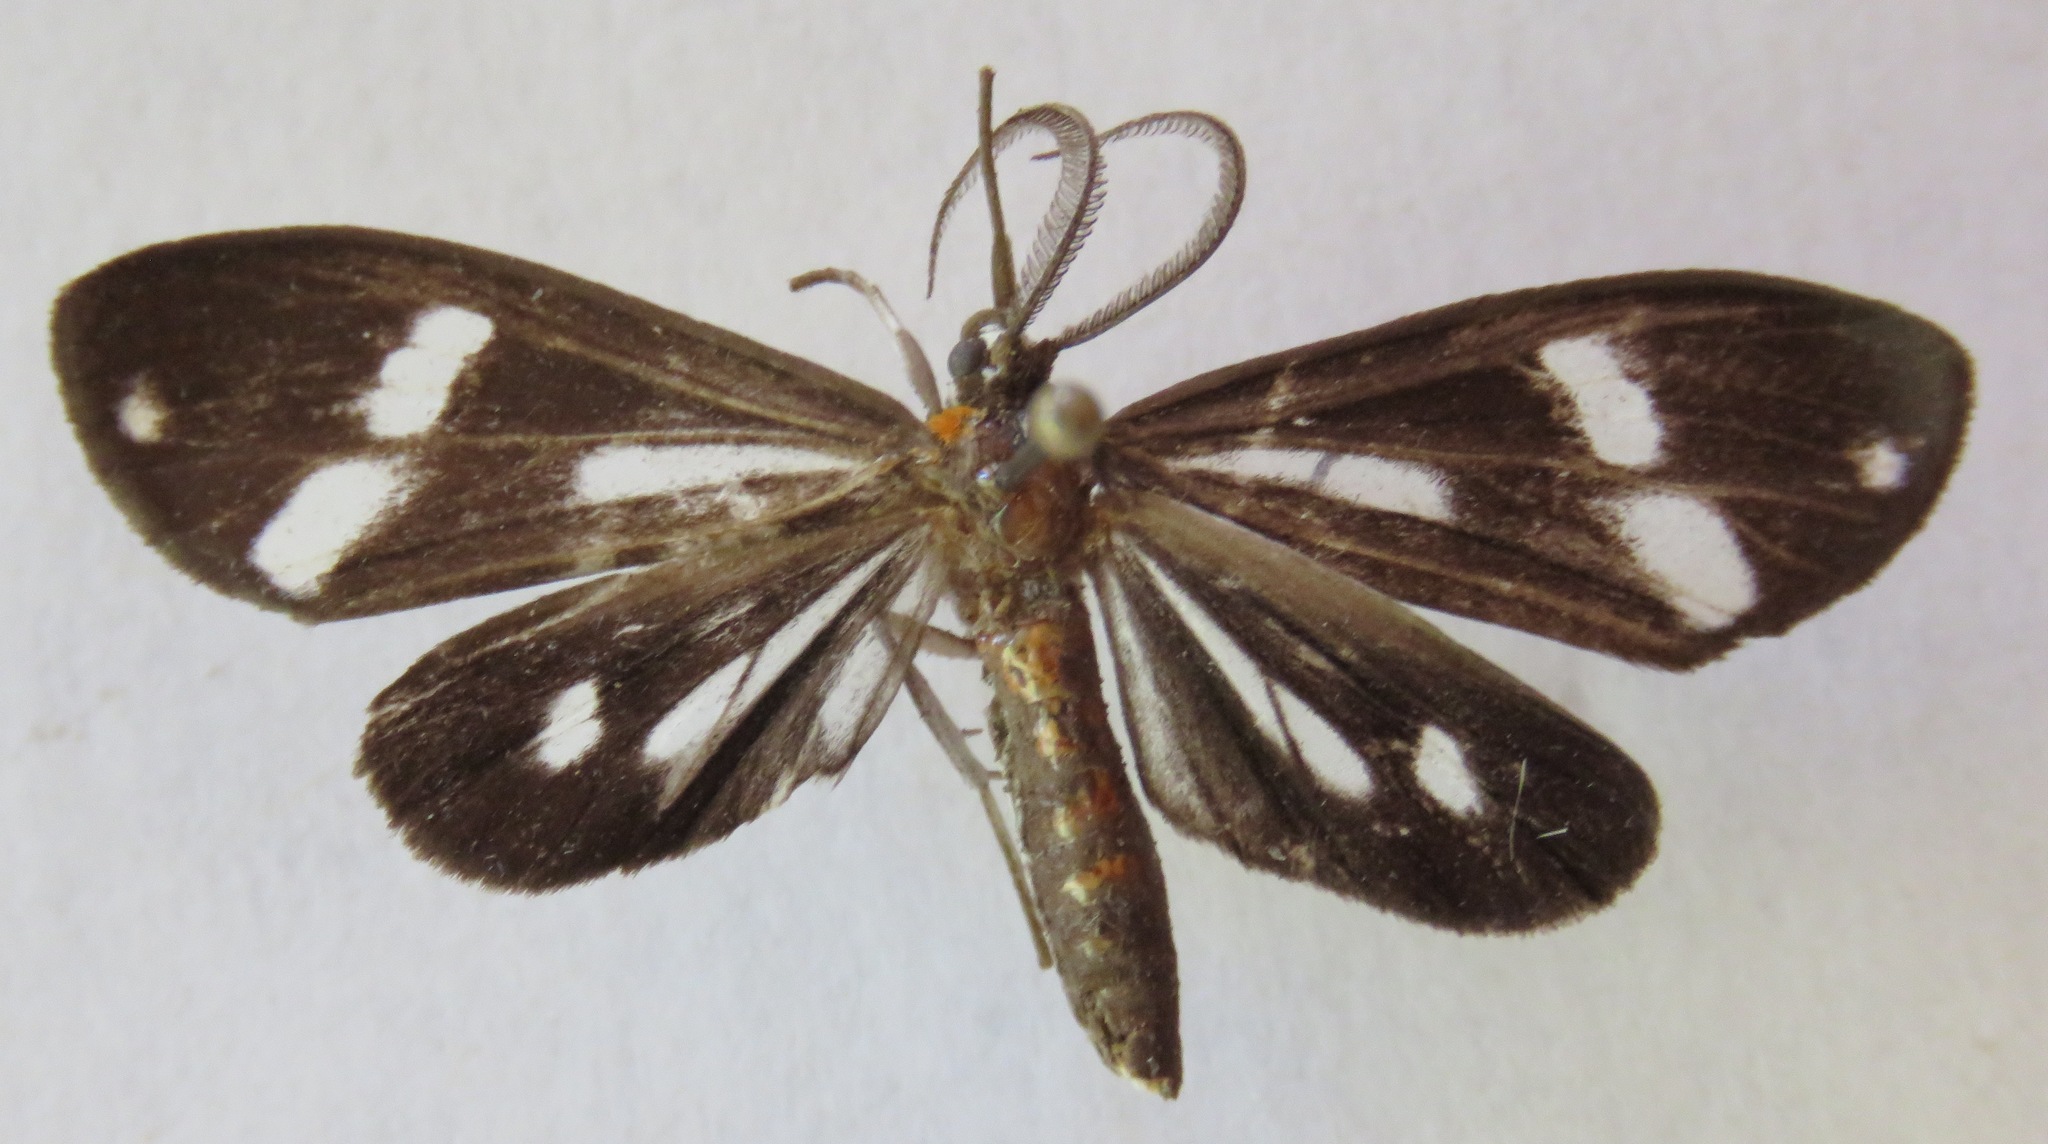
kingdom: Animalia
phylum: Arthropoda
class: Insecta
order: Lepidoptera
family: Notodontidae
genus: Dioptis
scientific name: Dioptis longipennis
